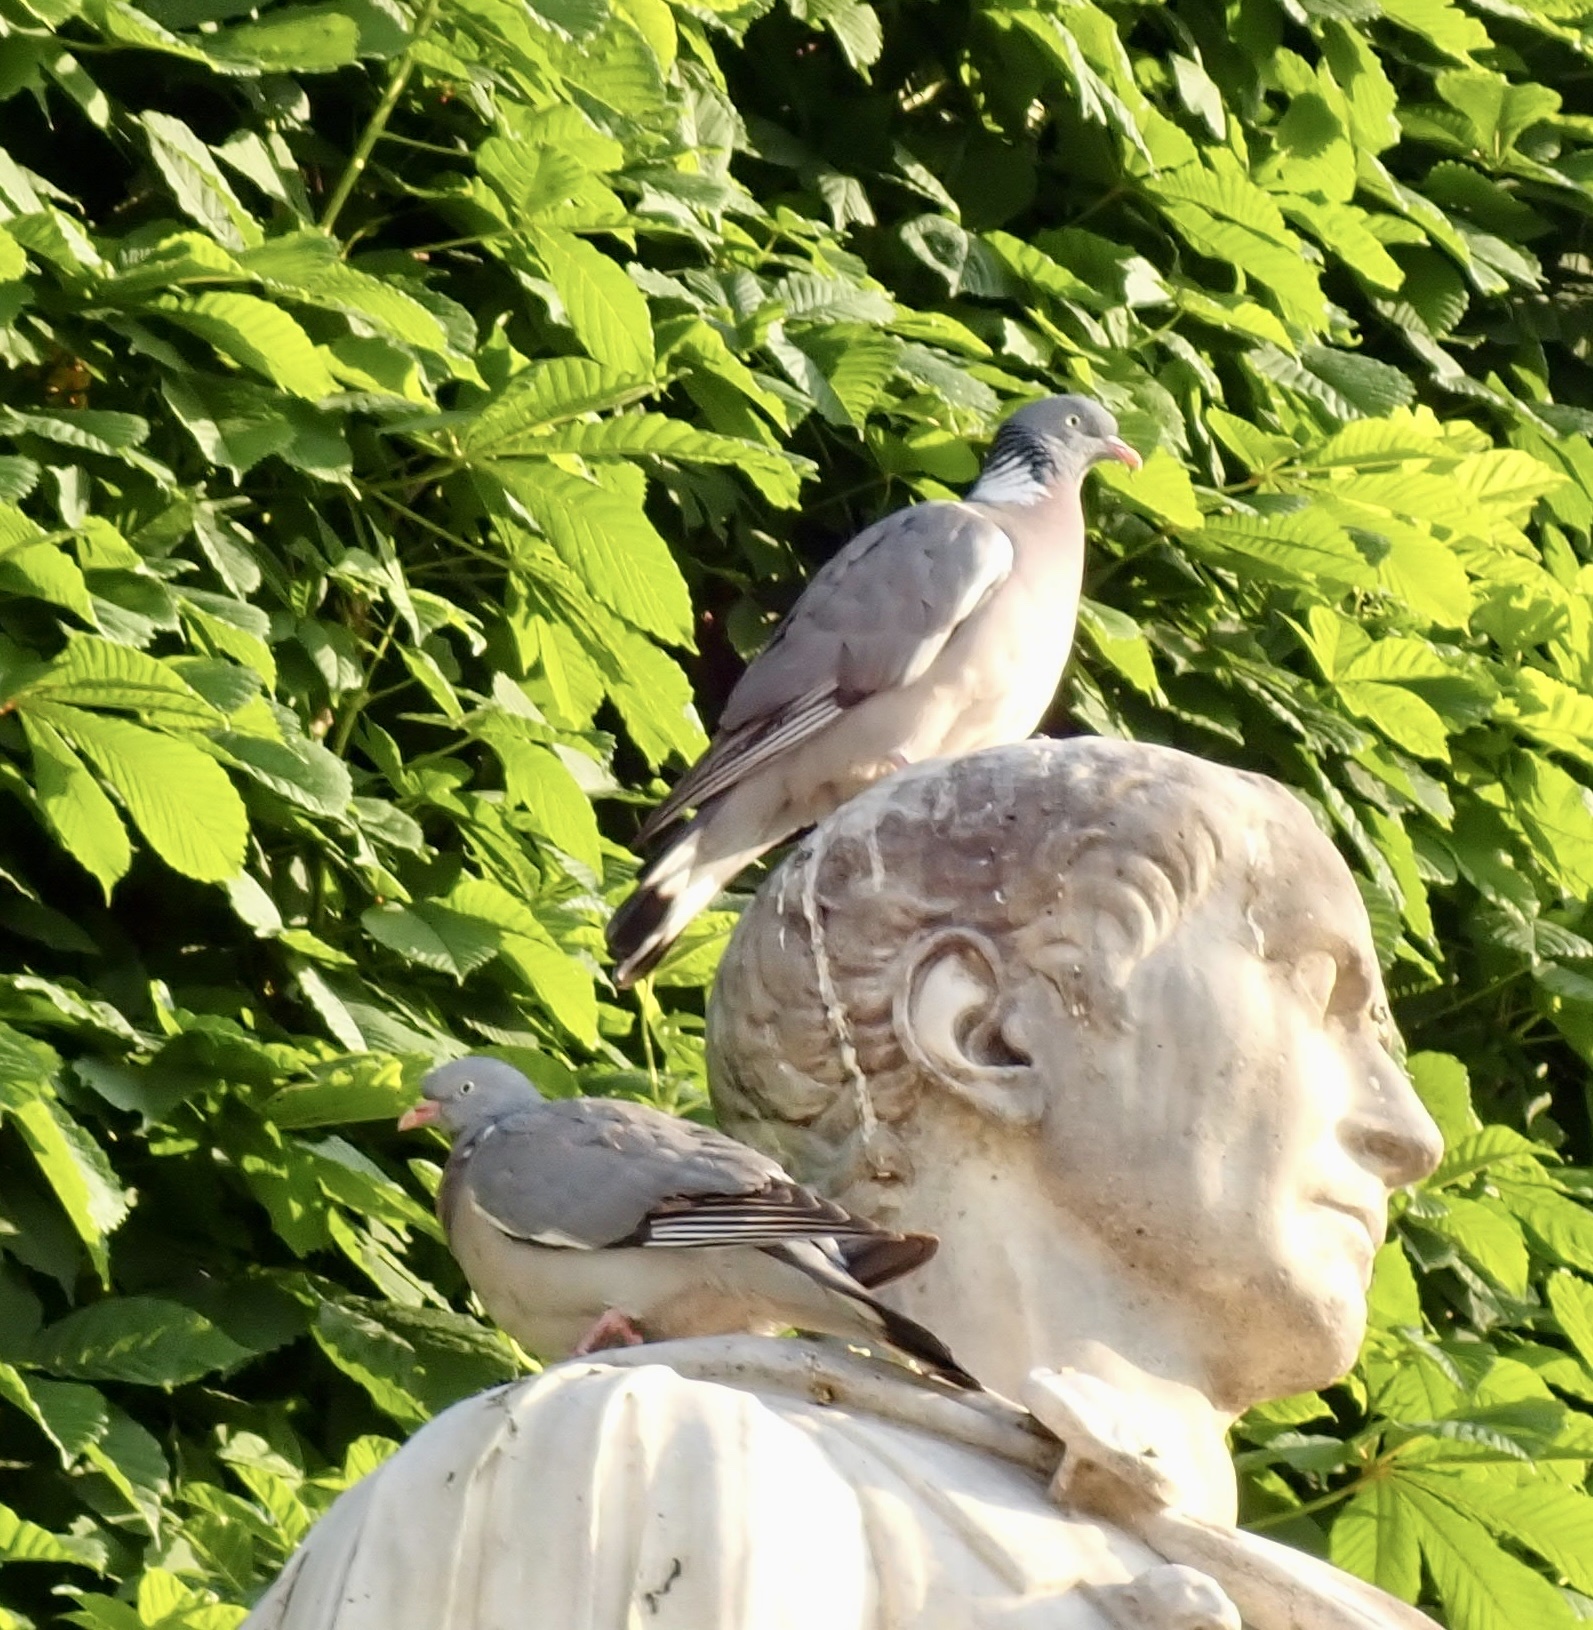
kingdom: Animalia
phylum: Chordata
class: Aves
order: Columbiformes
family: Columbidae
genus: Columba
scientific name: Columba palumbus
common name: Common wood pigeon
